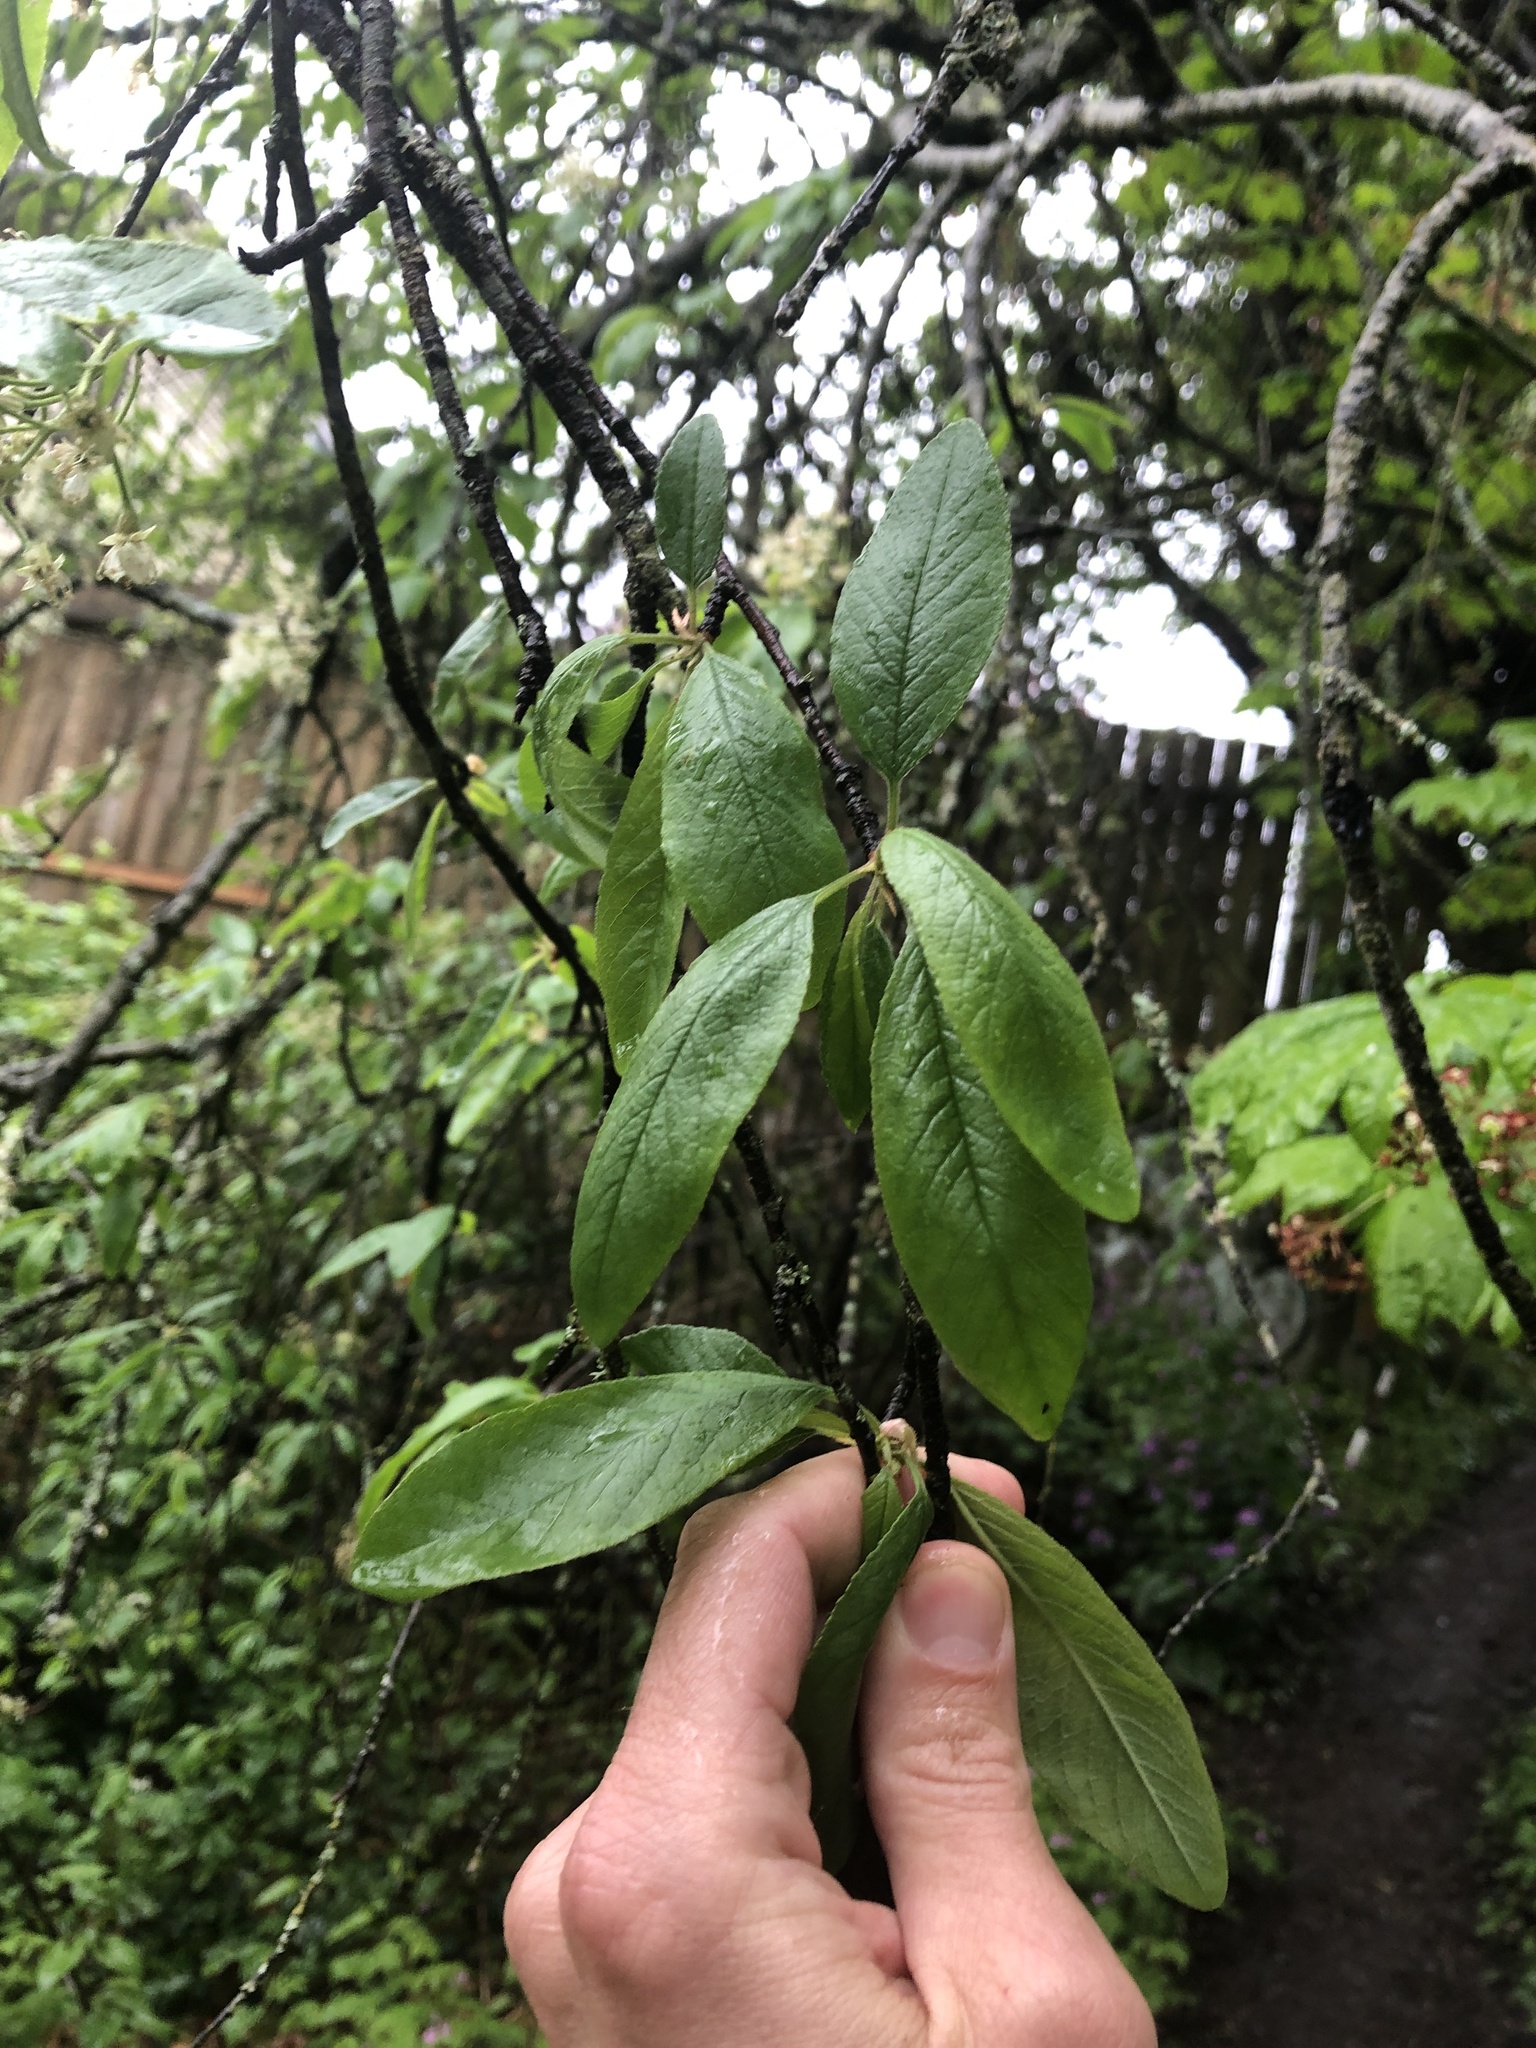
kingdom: Plantae
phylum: Tracheophyta
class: Magnoliopsida
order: Rosales
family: Rosaceae
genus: Prunus
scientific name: Prunus emarginata
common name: Bitter cherry
